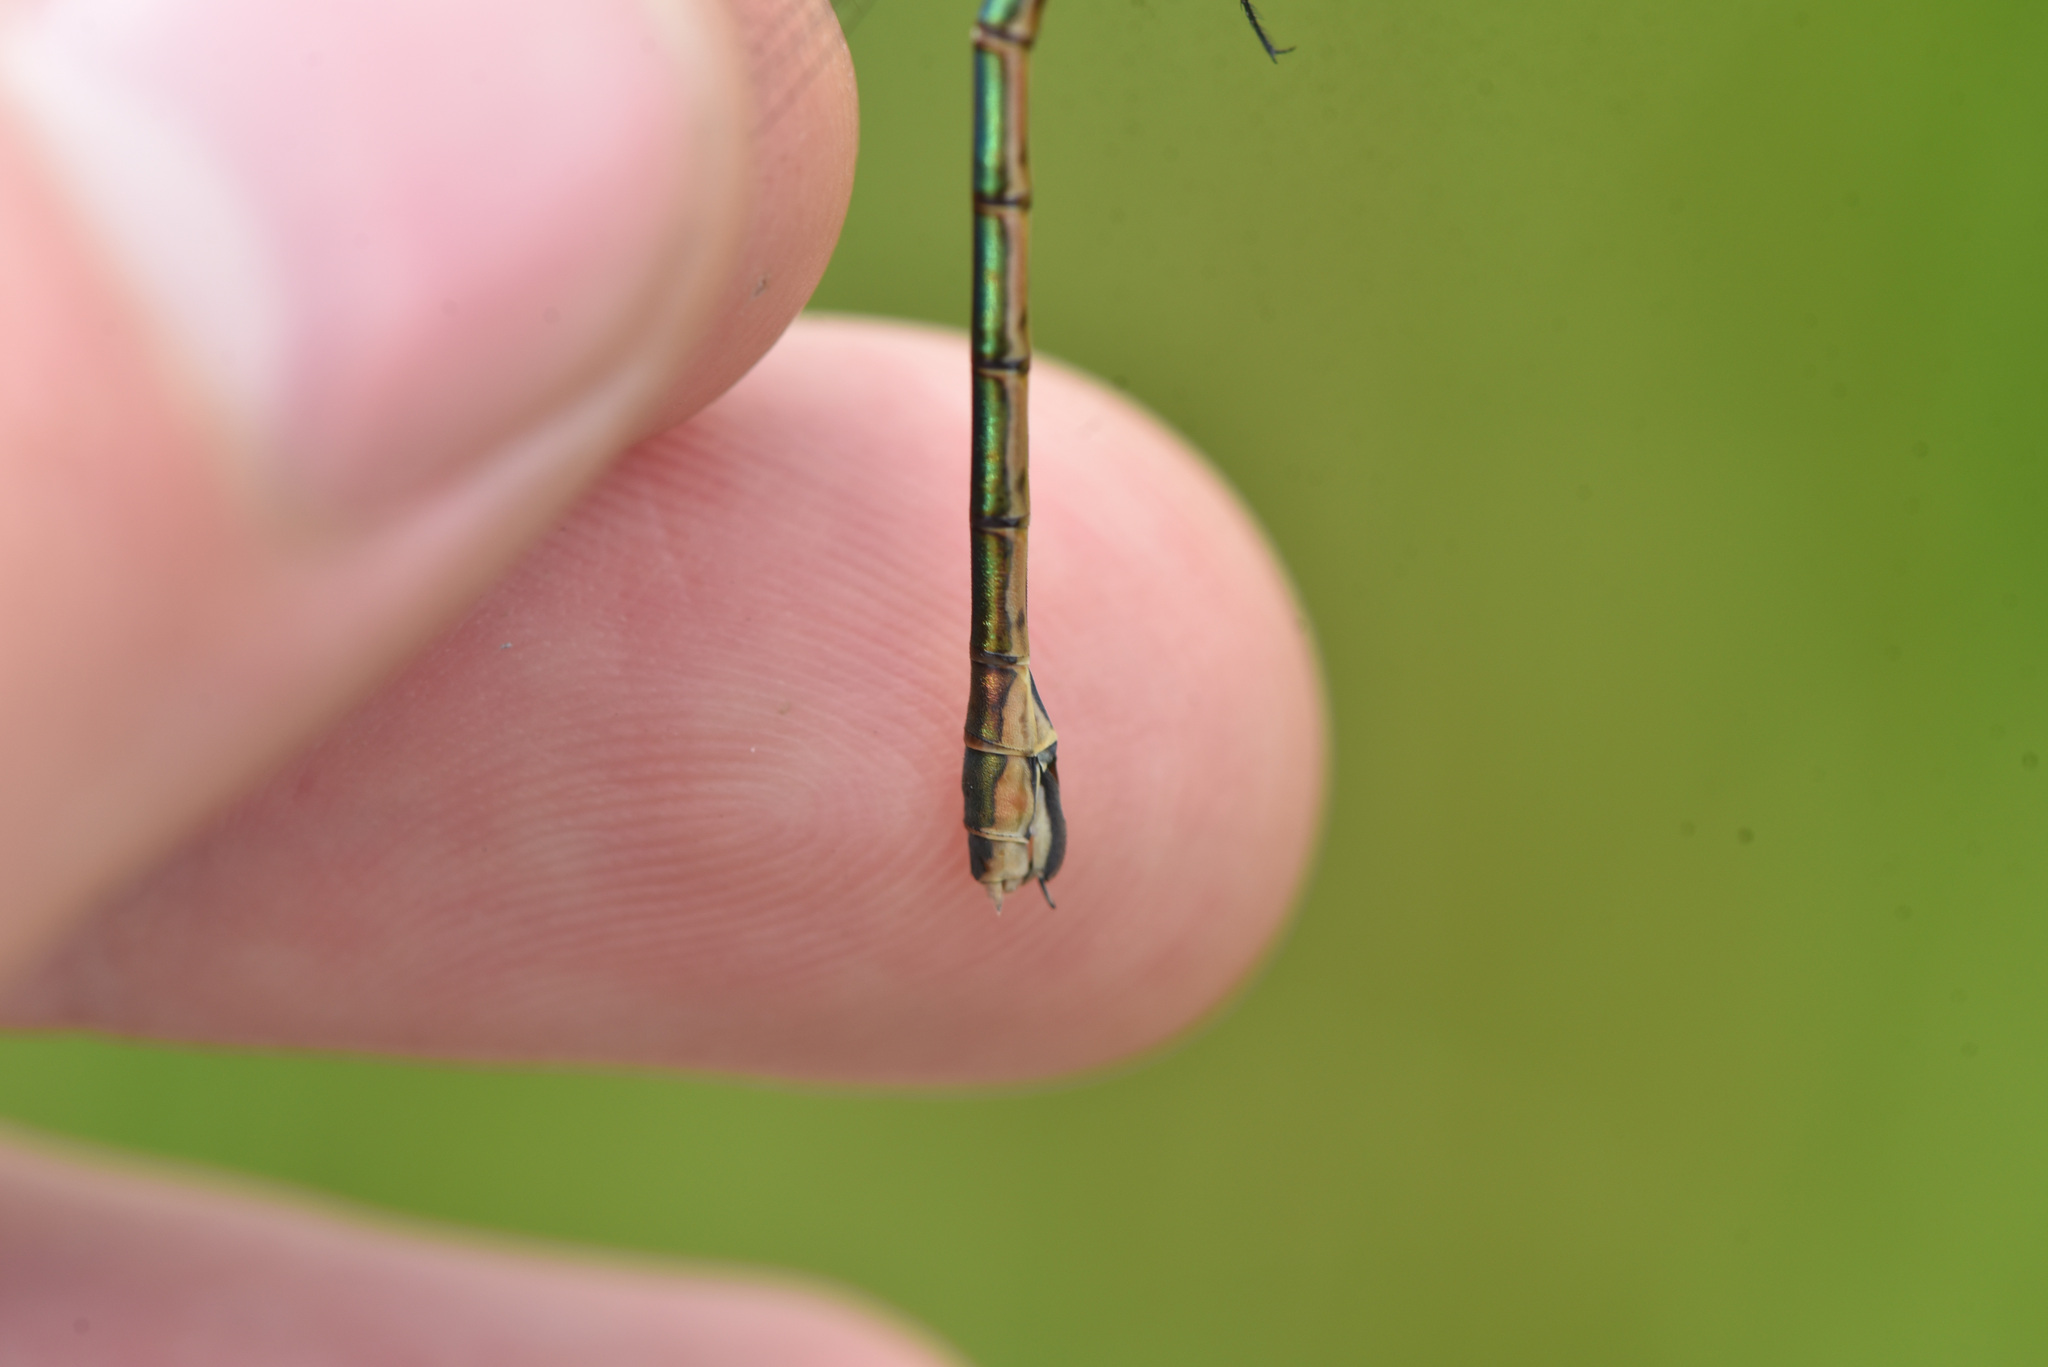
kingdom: Animalia
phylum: Arthropoda
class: Insecta
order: Odonata
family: Lestidae
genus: Lestes
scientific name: Lestes dryas
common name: Scarce emerald damselfly
